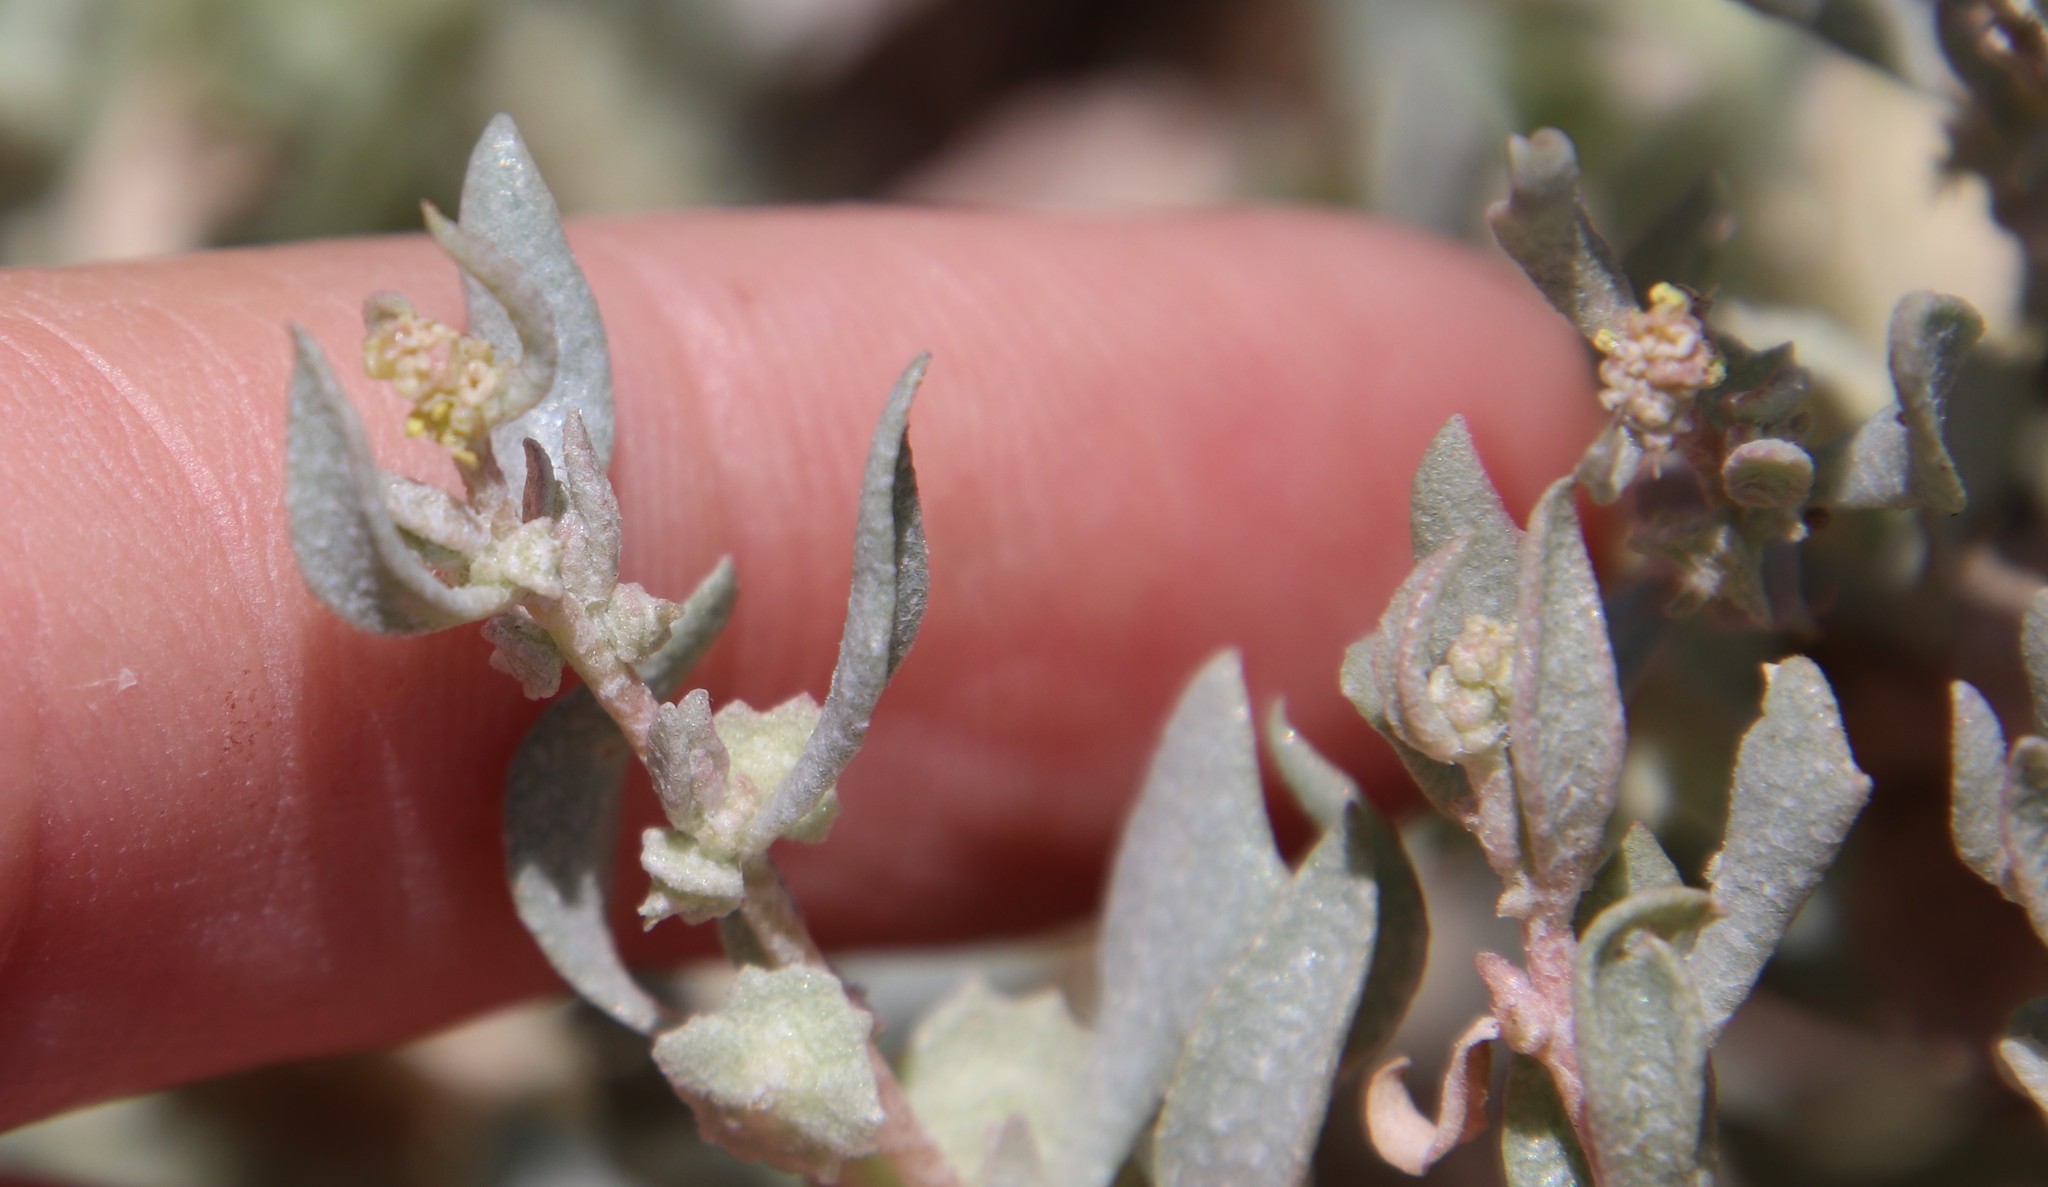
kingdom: Plantae
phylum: Tracheophyta
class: Magnoliopsida
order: Caryophyllales
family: Amaranthaceae
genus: Atriplex
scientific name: Atriplex lindleyi
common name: Lindley's saltbush
